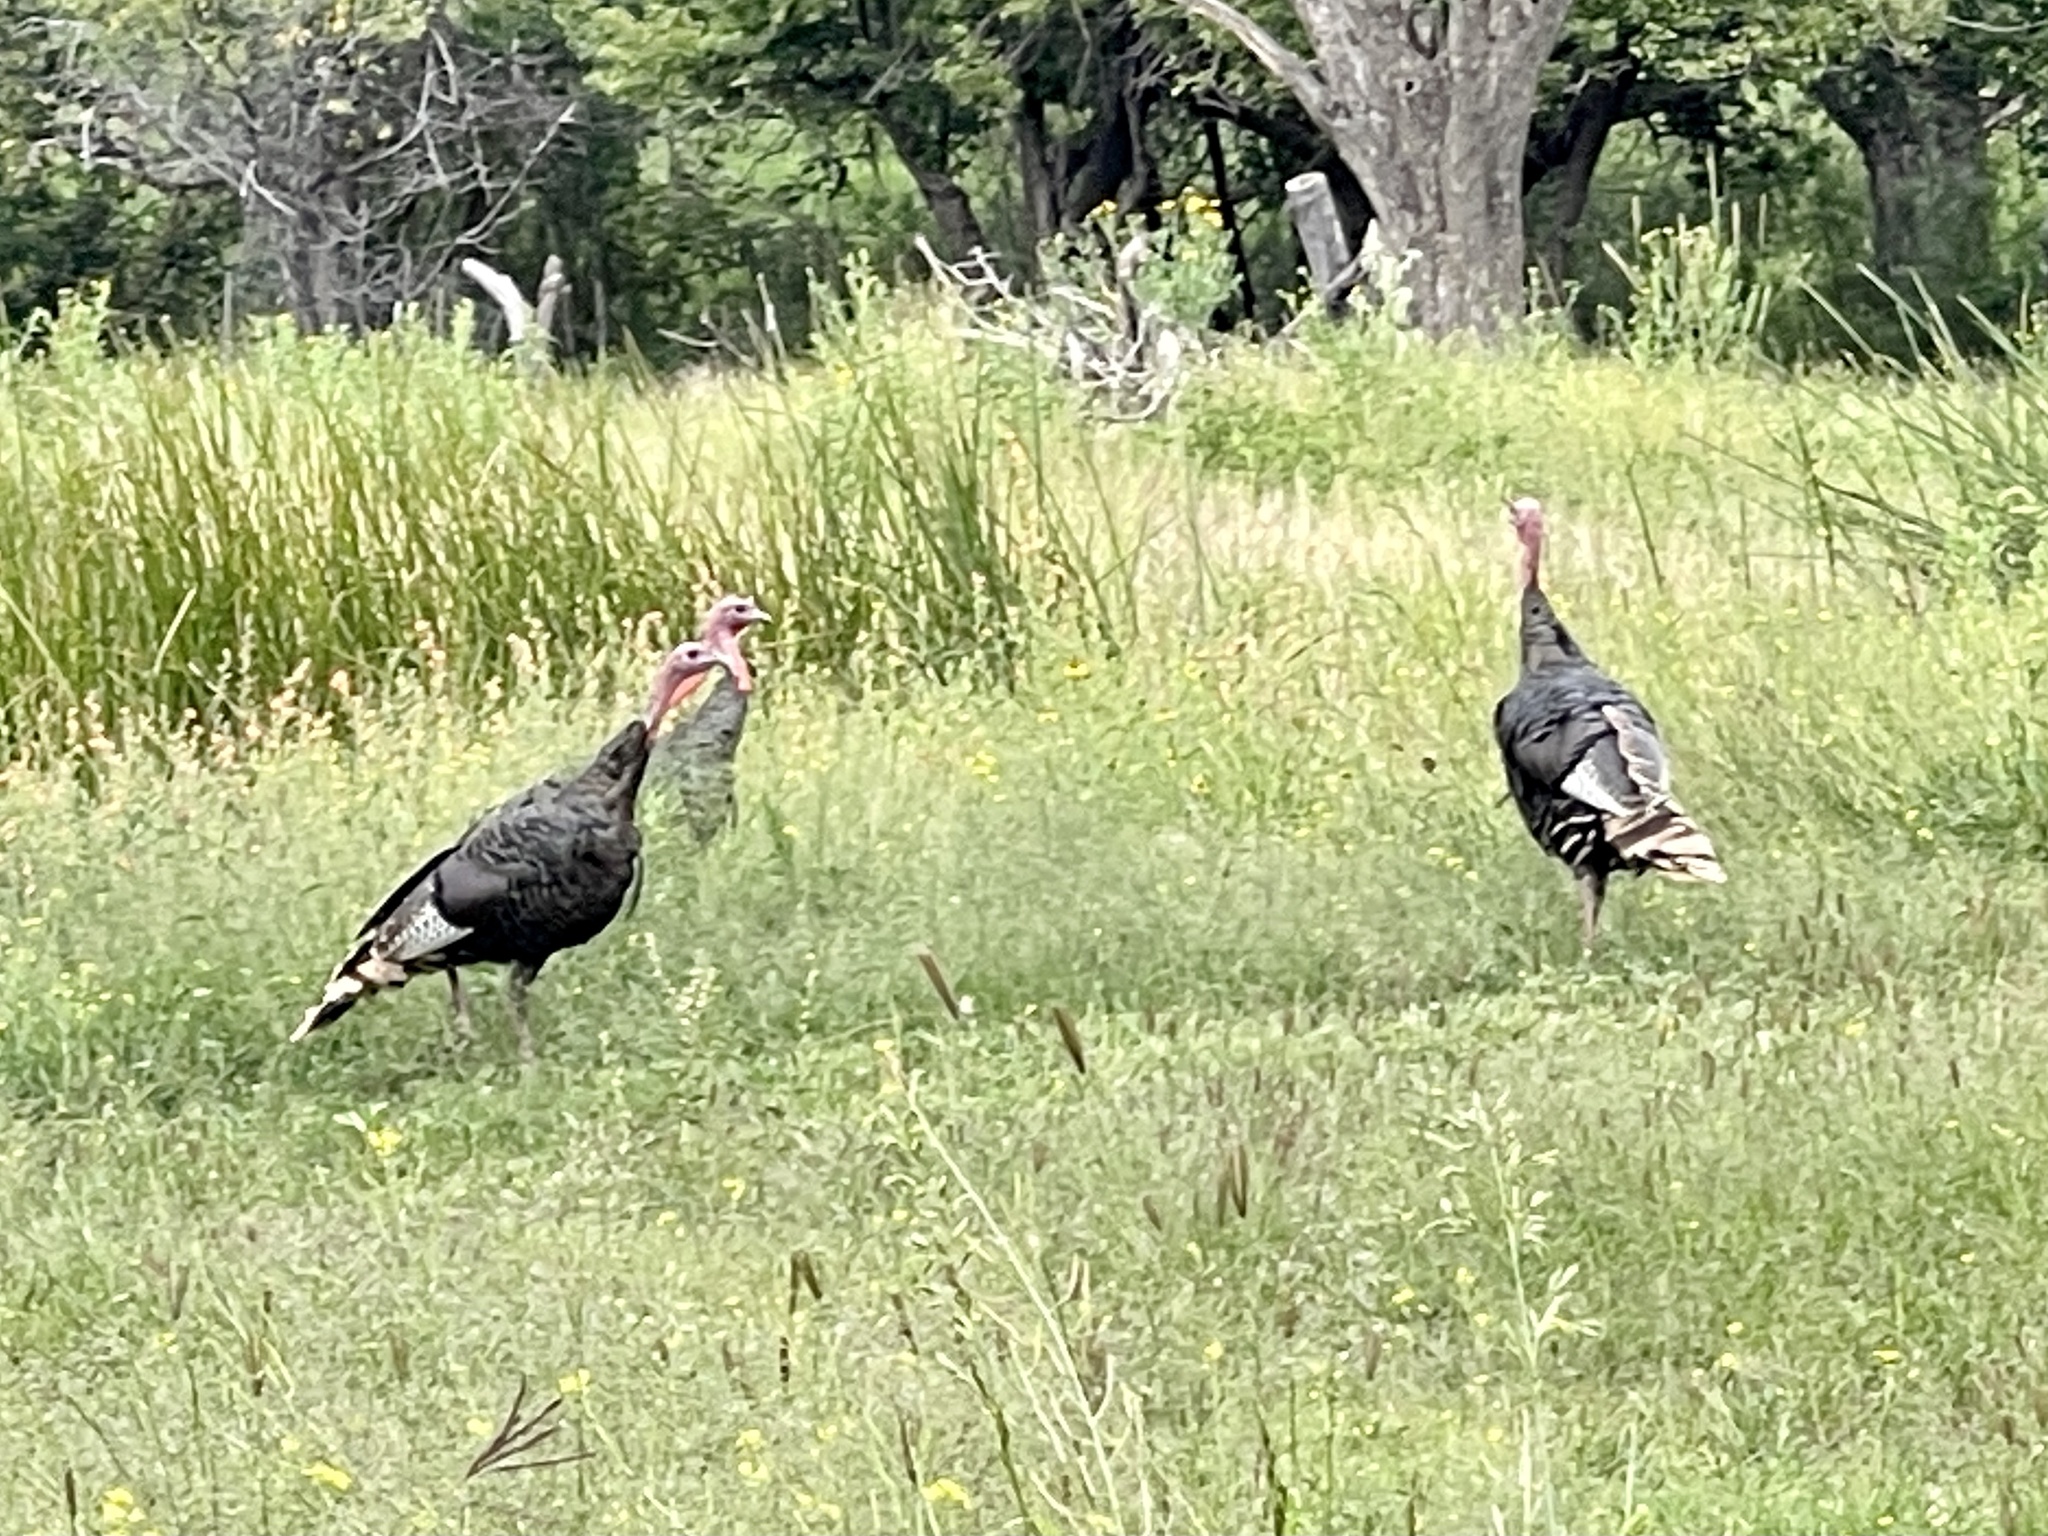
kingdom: Animalia
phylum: Chordata
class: Aves
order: Galliformes
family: Phasianidae
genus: Meleagris
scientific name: Meleagris gallopavo
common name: Wild turkey
